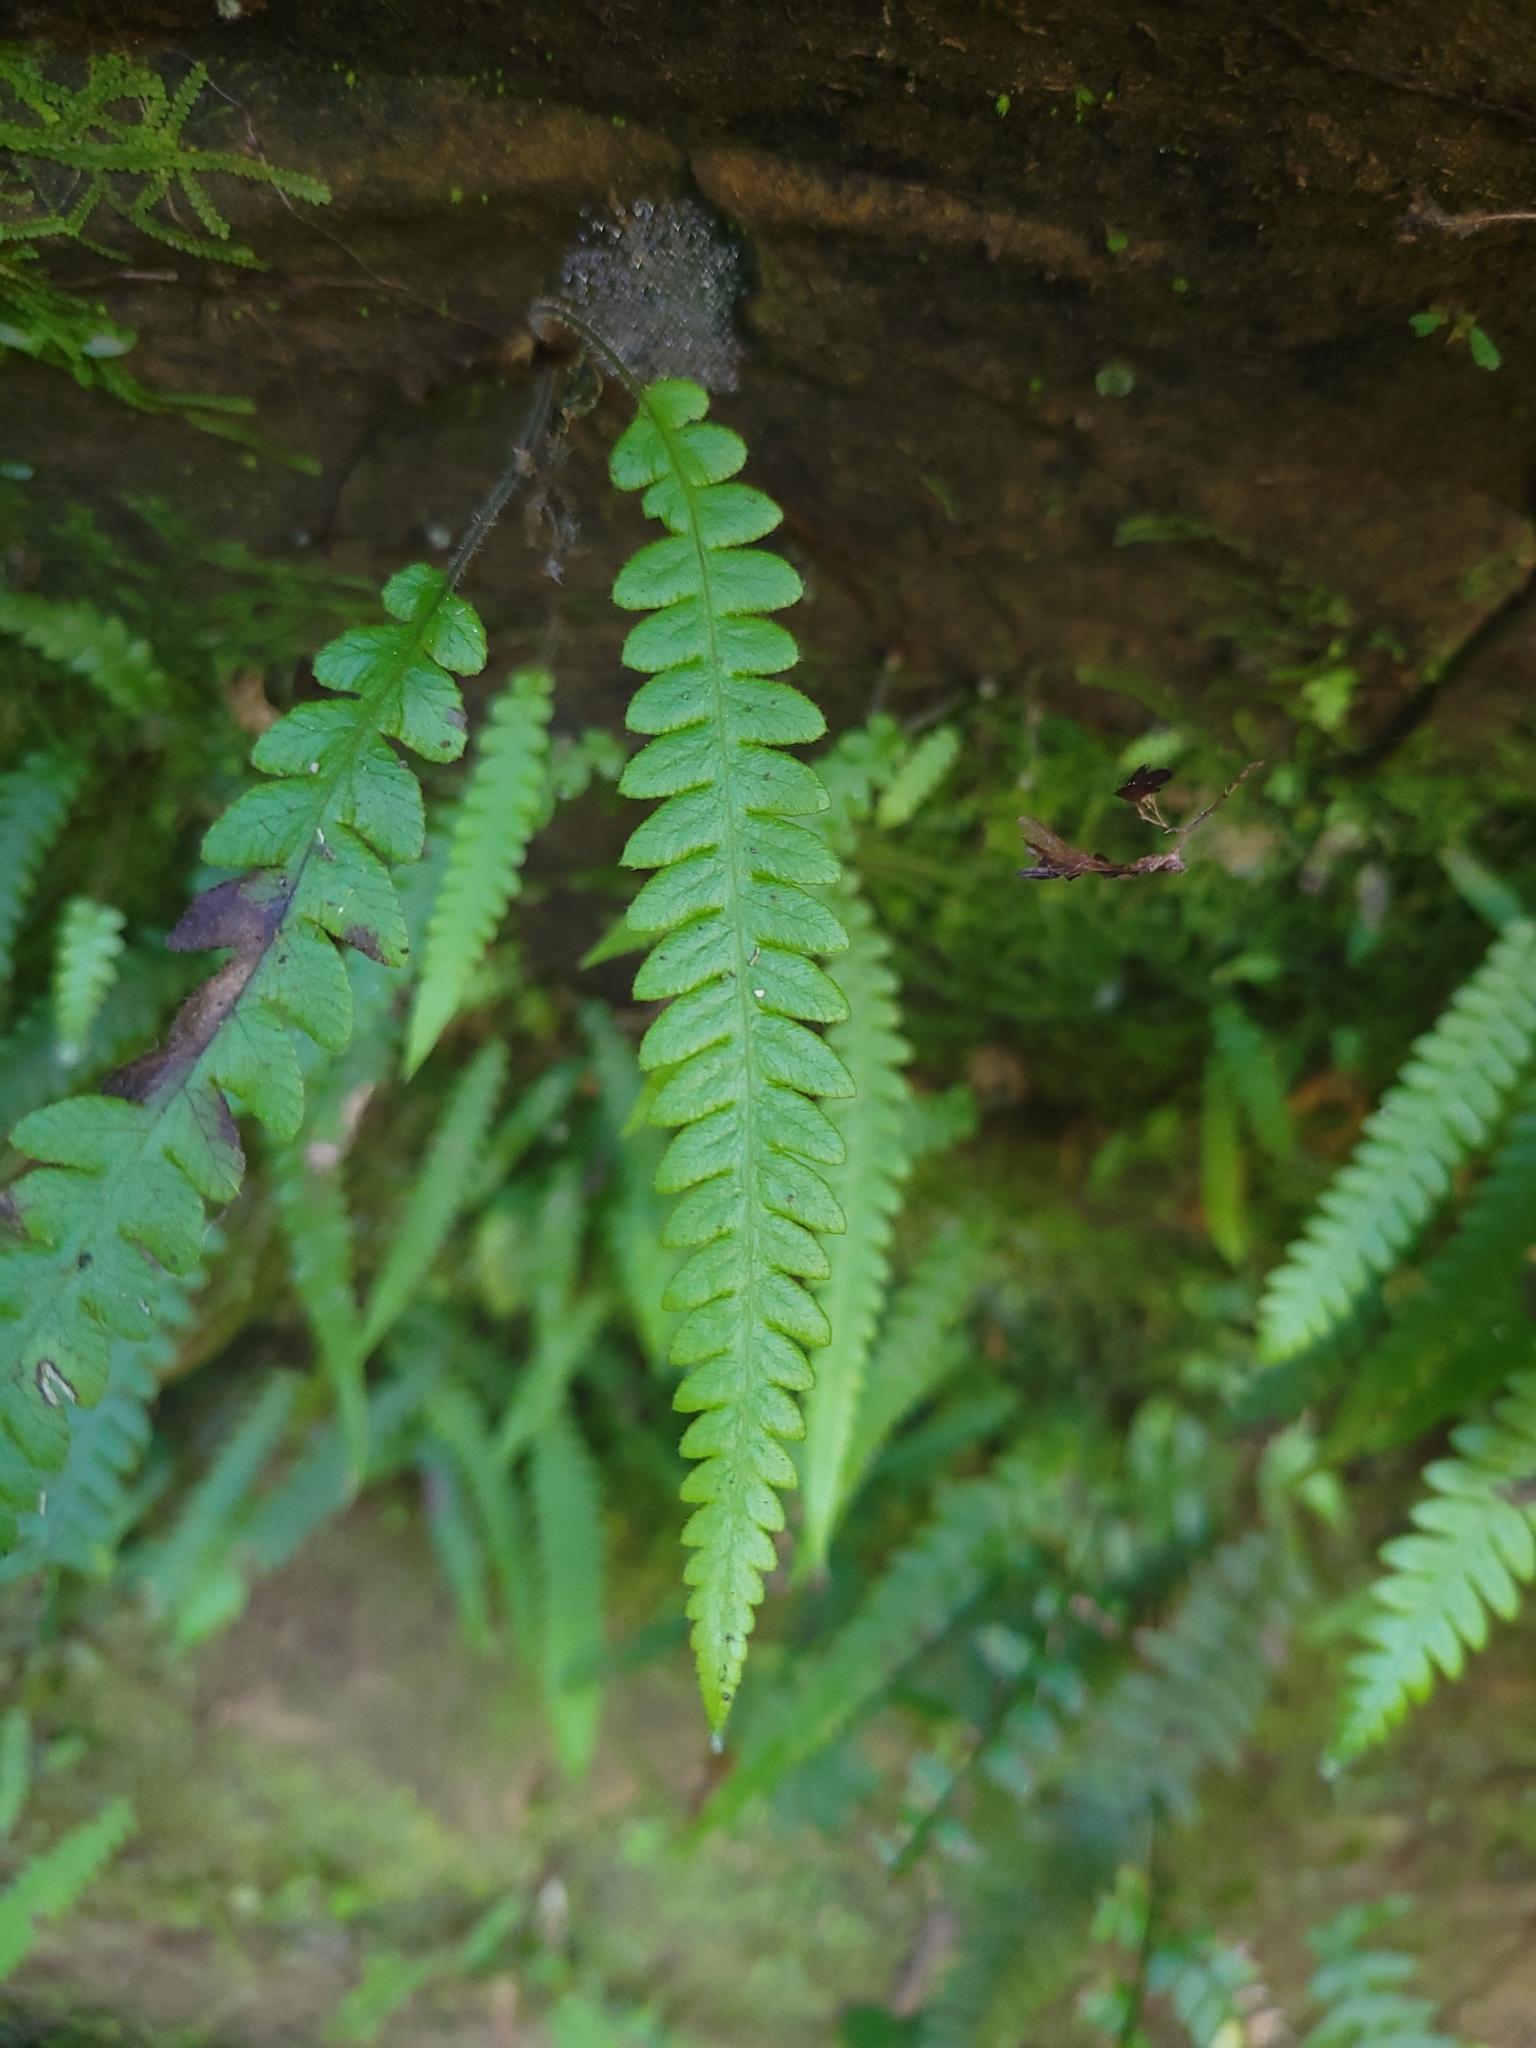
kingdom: Plantae
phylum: Tracheophyta
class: Polypodiopsida
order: Polypodiales
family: Thelypteridaceae
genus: Phegopteris
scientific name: Phegopteris decursive-pinnata
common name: Japanese beech fern
